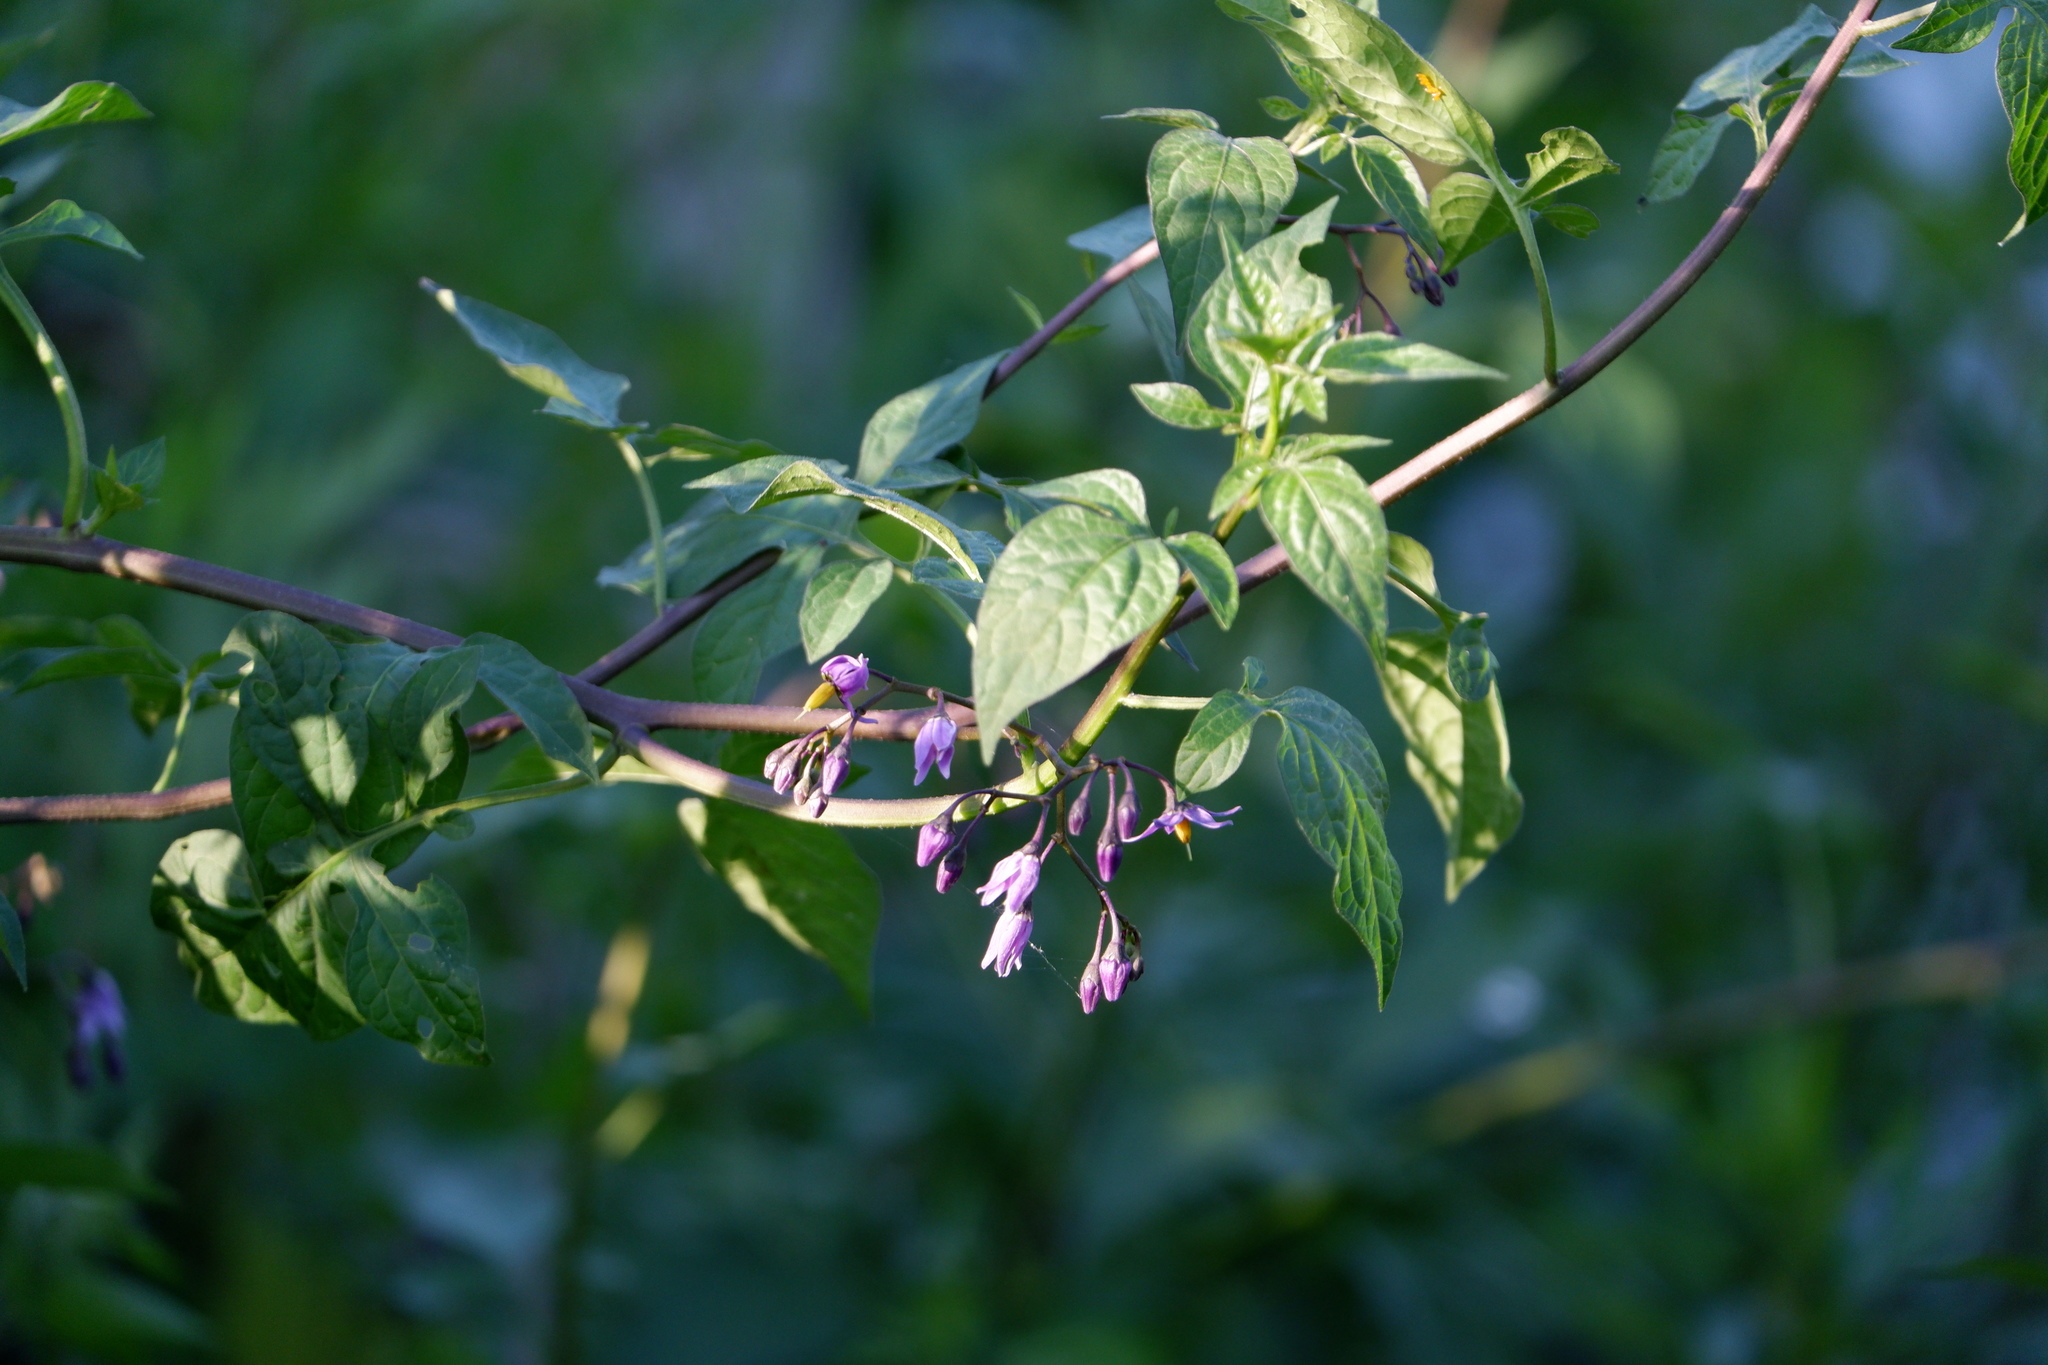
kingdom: Plantae
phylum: Tracheophyta
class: Magnoliopsida
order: Solanales
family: Solanaceae
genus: Solanum
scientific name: Solanum dulcamara
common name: Climbing nightshade
